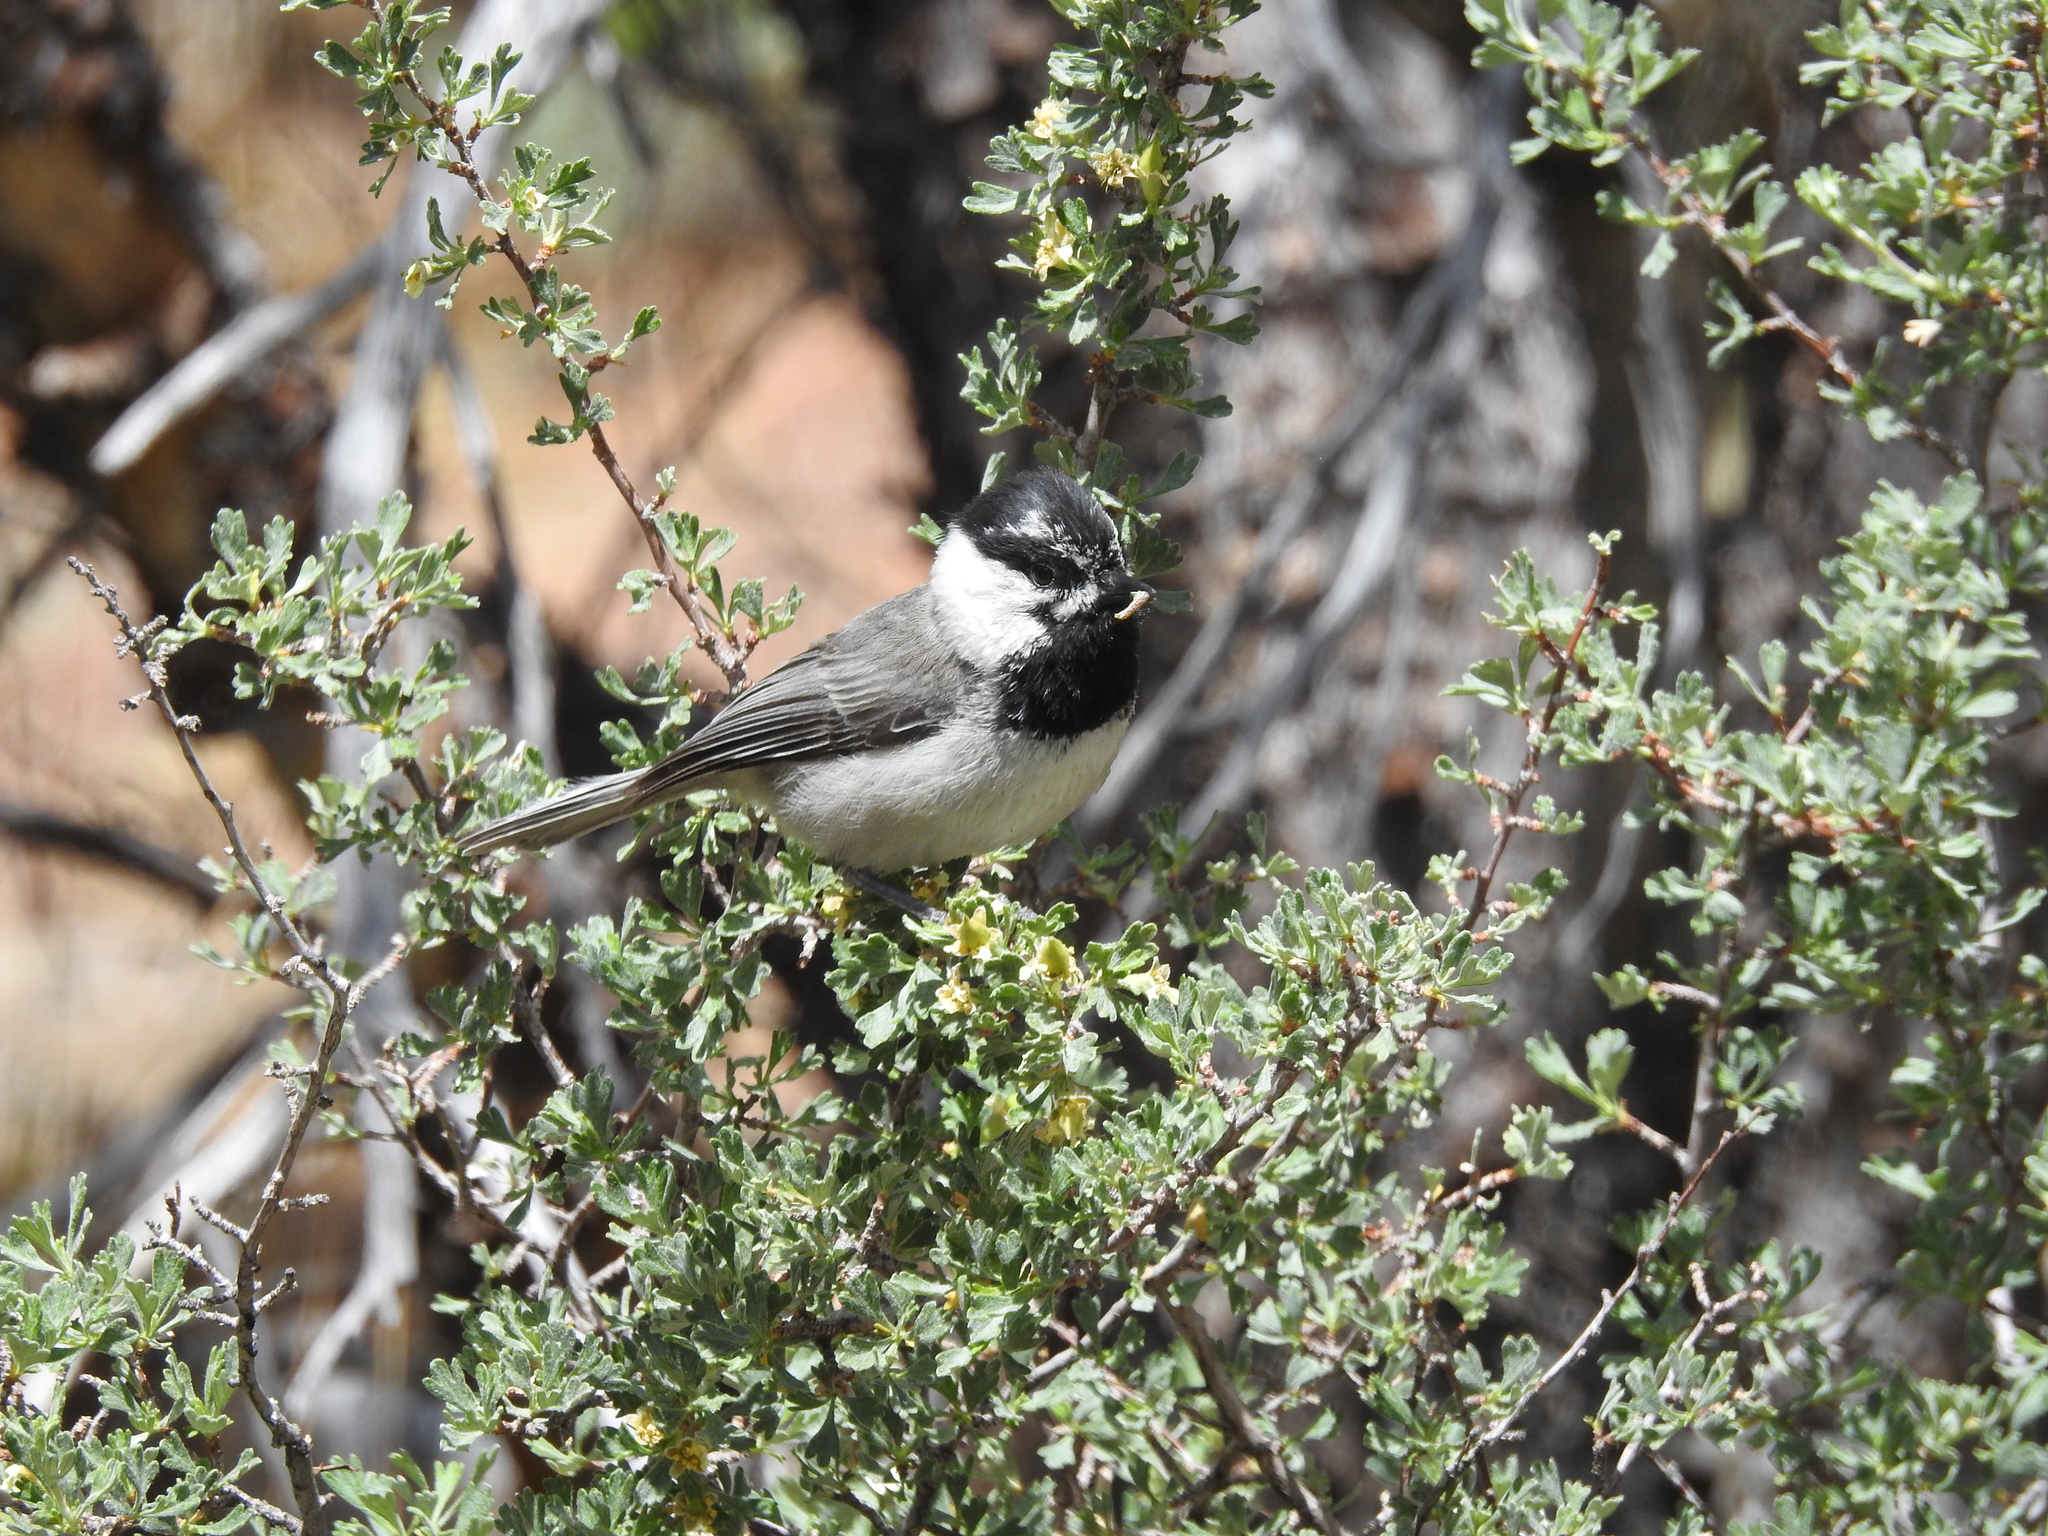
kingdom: Animalia
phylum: Chordata
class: Aves
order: Passeriformes
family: Paridae
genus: Poecile
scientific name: Poecile gambeli
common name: Mountain chickadee
